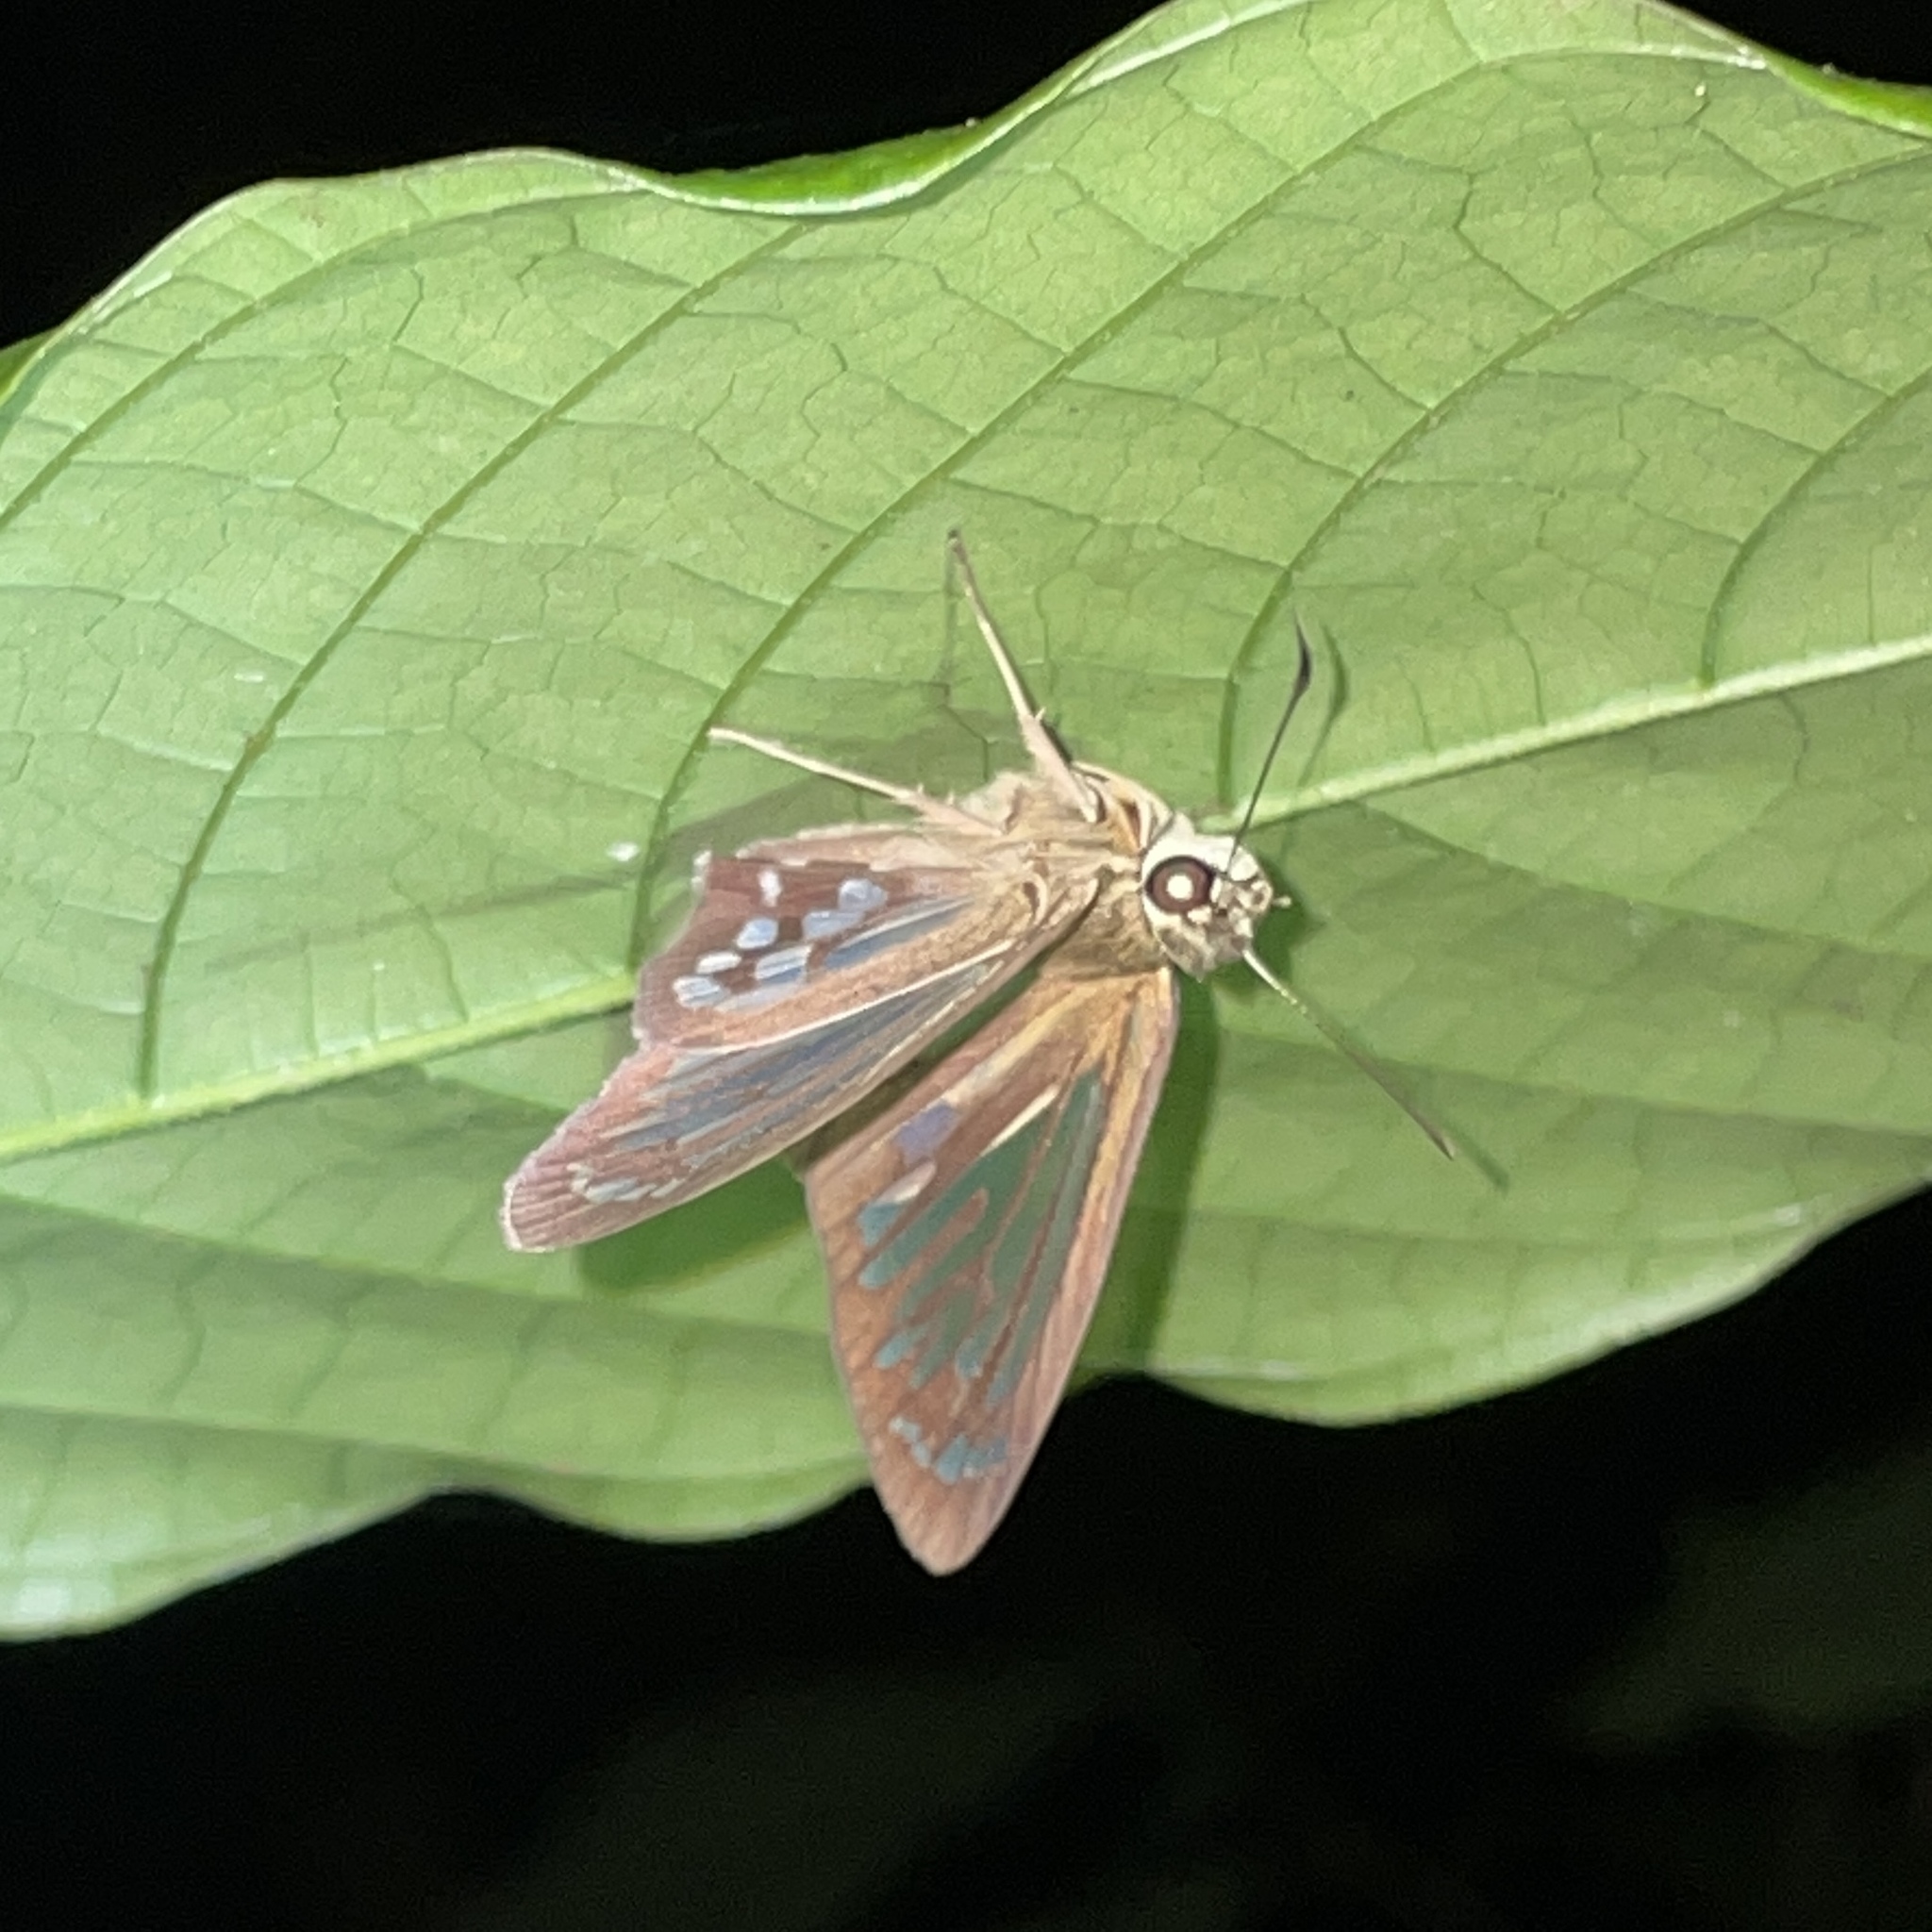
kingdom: Animalia
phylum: Arthropoda
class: Insecta
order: Lepidoptera
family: Hesperiidae
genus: Phanus
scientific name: Phanus marshallii
